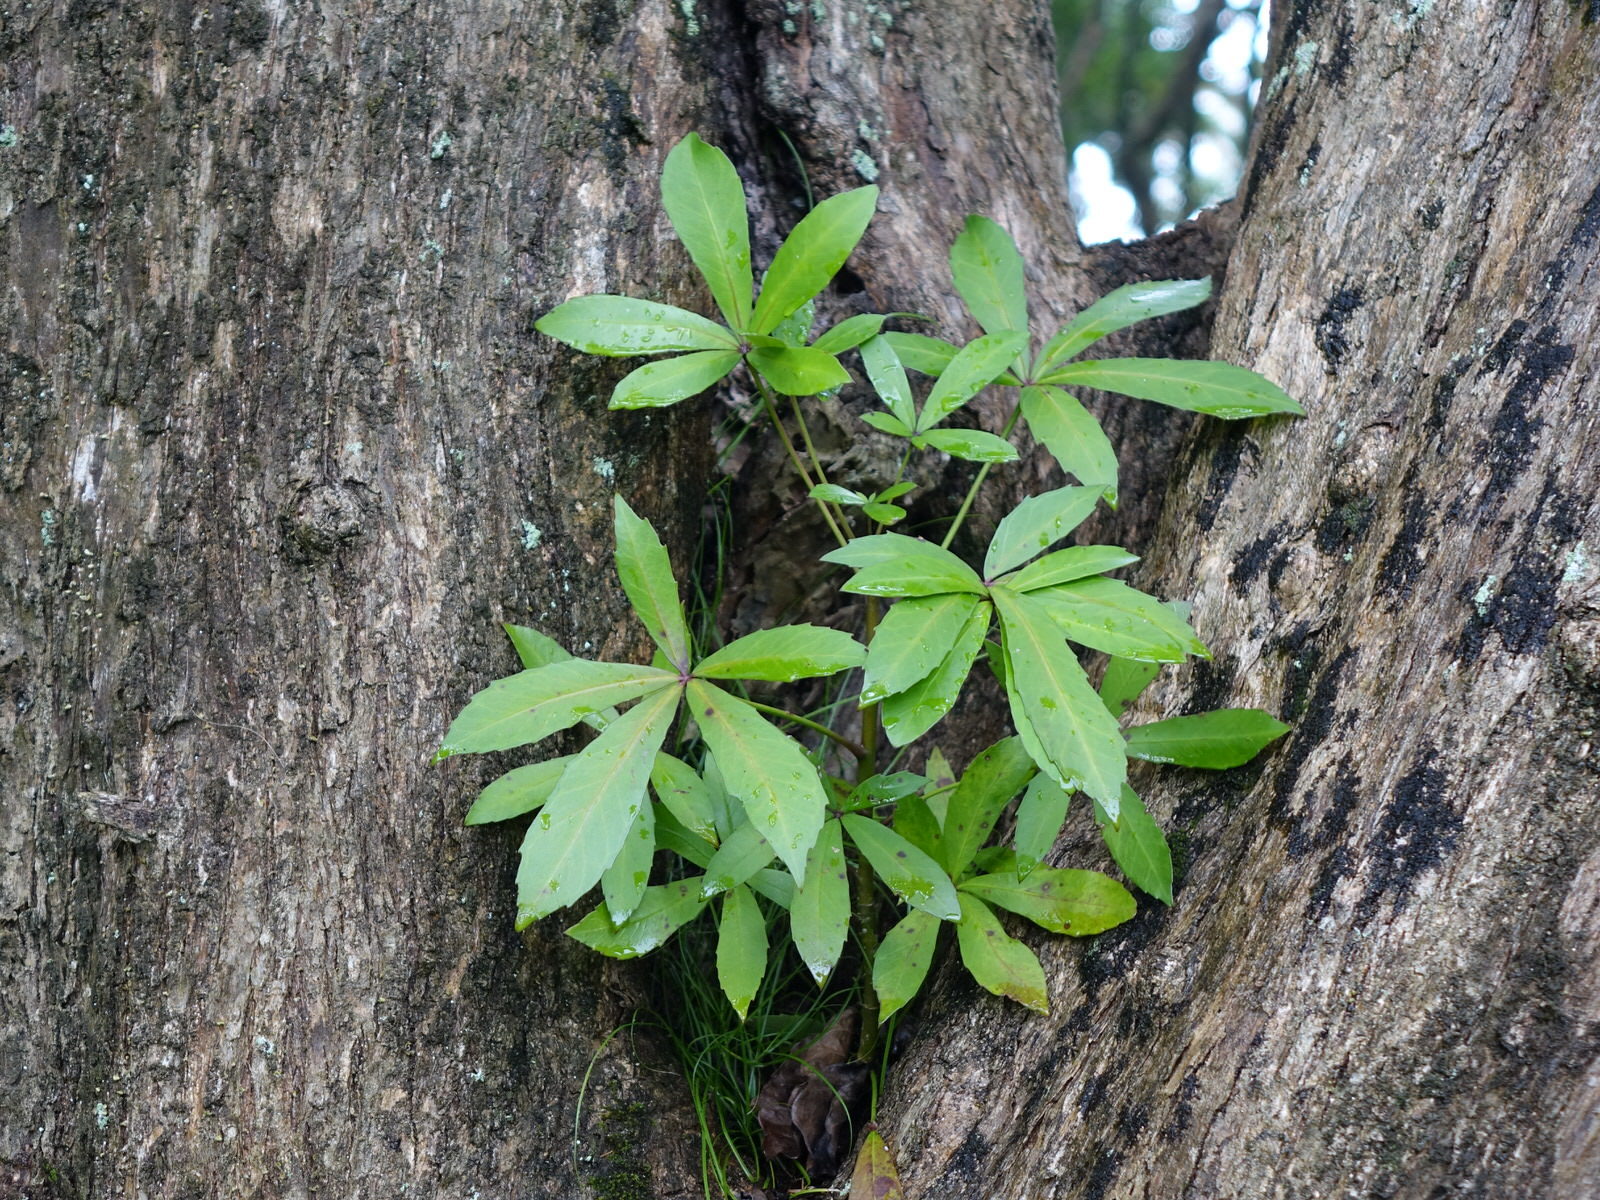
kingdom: Plantae
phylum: Tracheophyta
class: Magnoliopsida
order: Apiales
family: Araliaceae
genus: Pseudopanax
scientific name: Pseudopanax lessonii
